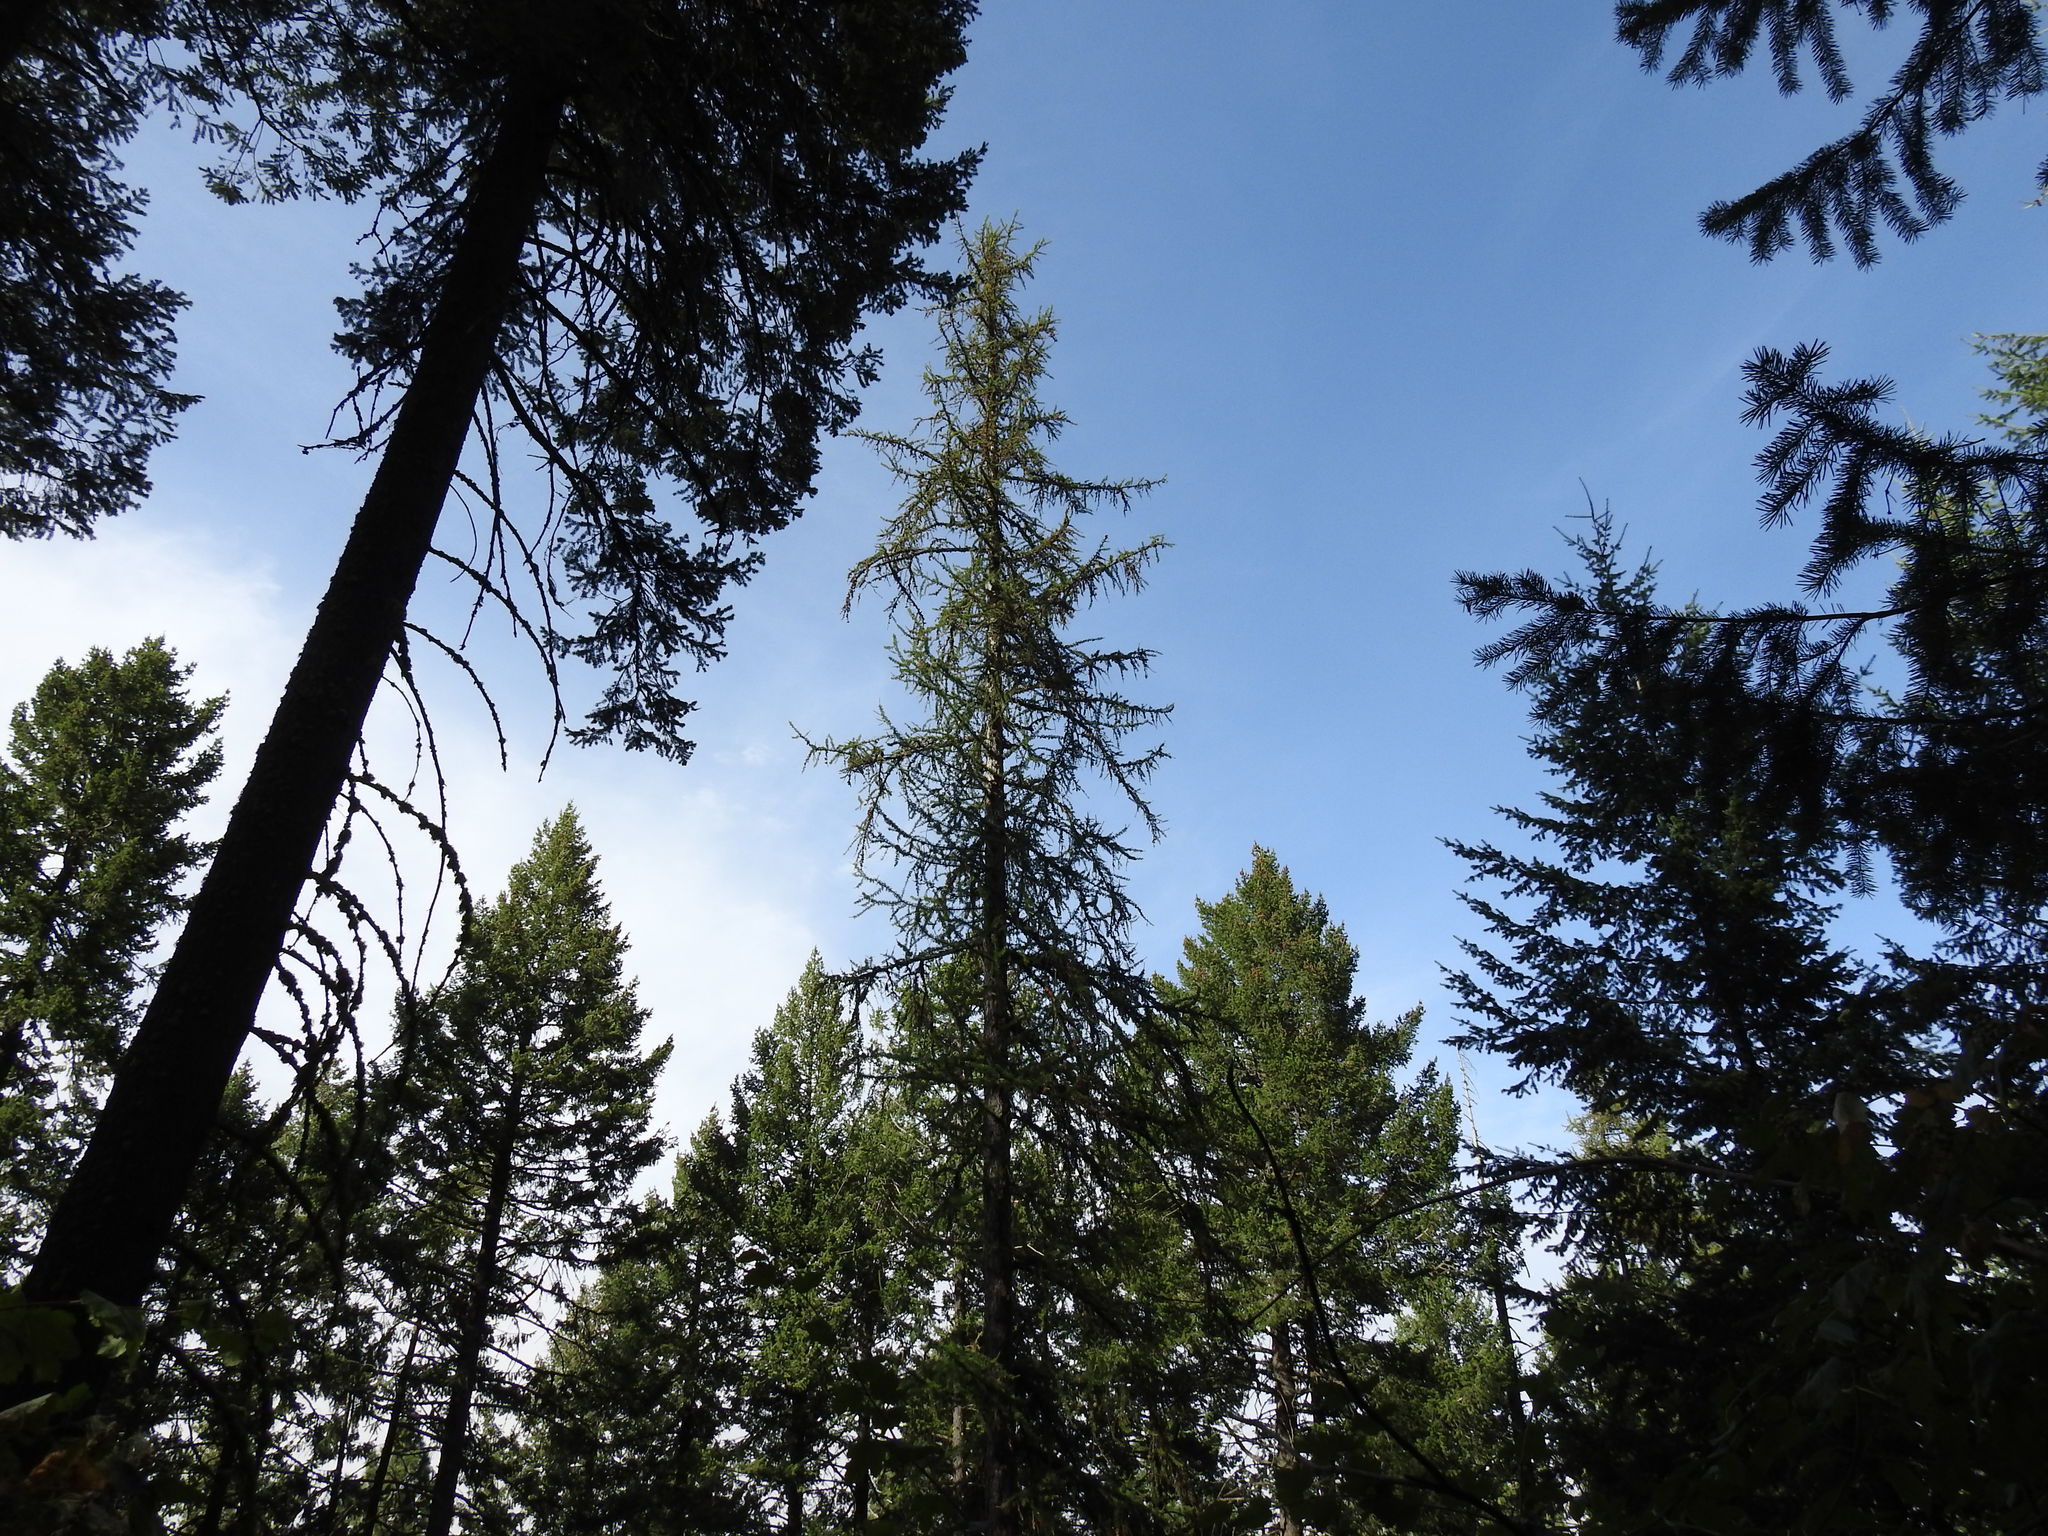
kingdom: Plantae
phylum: Tracheophyta
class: Pinopsida
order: Pinales
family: Pinaceae
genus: Larix
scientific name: Larix occidentalis
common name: Western larch
